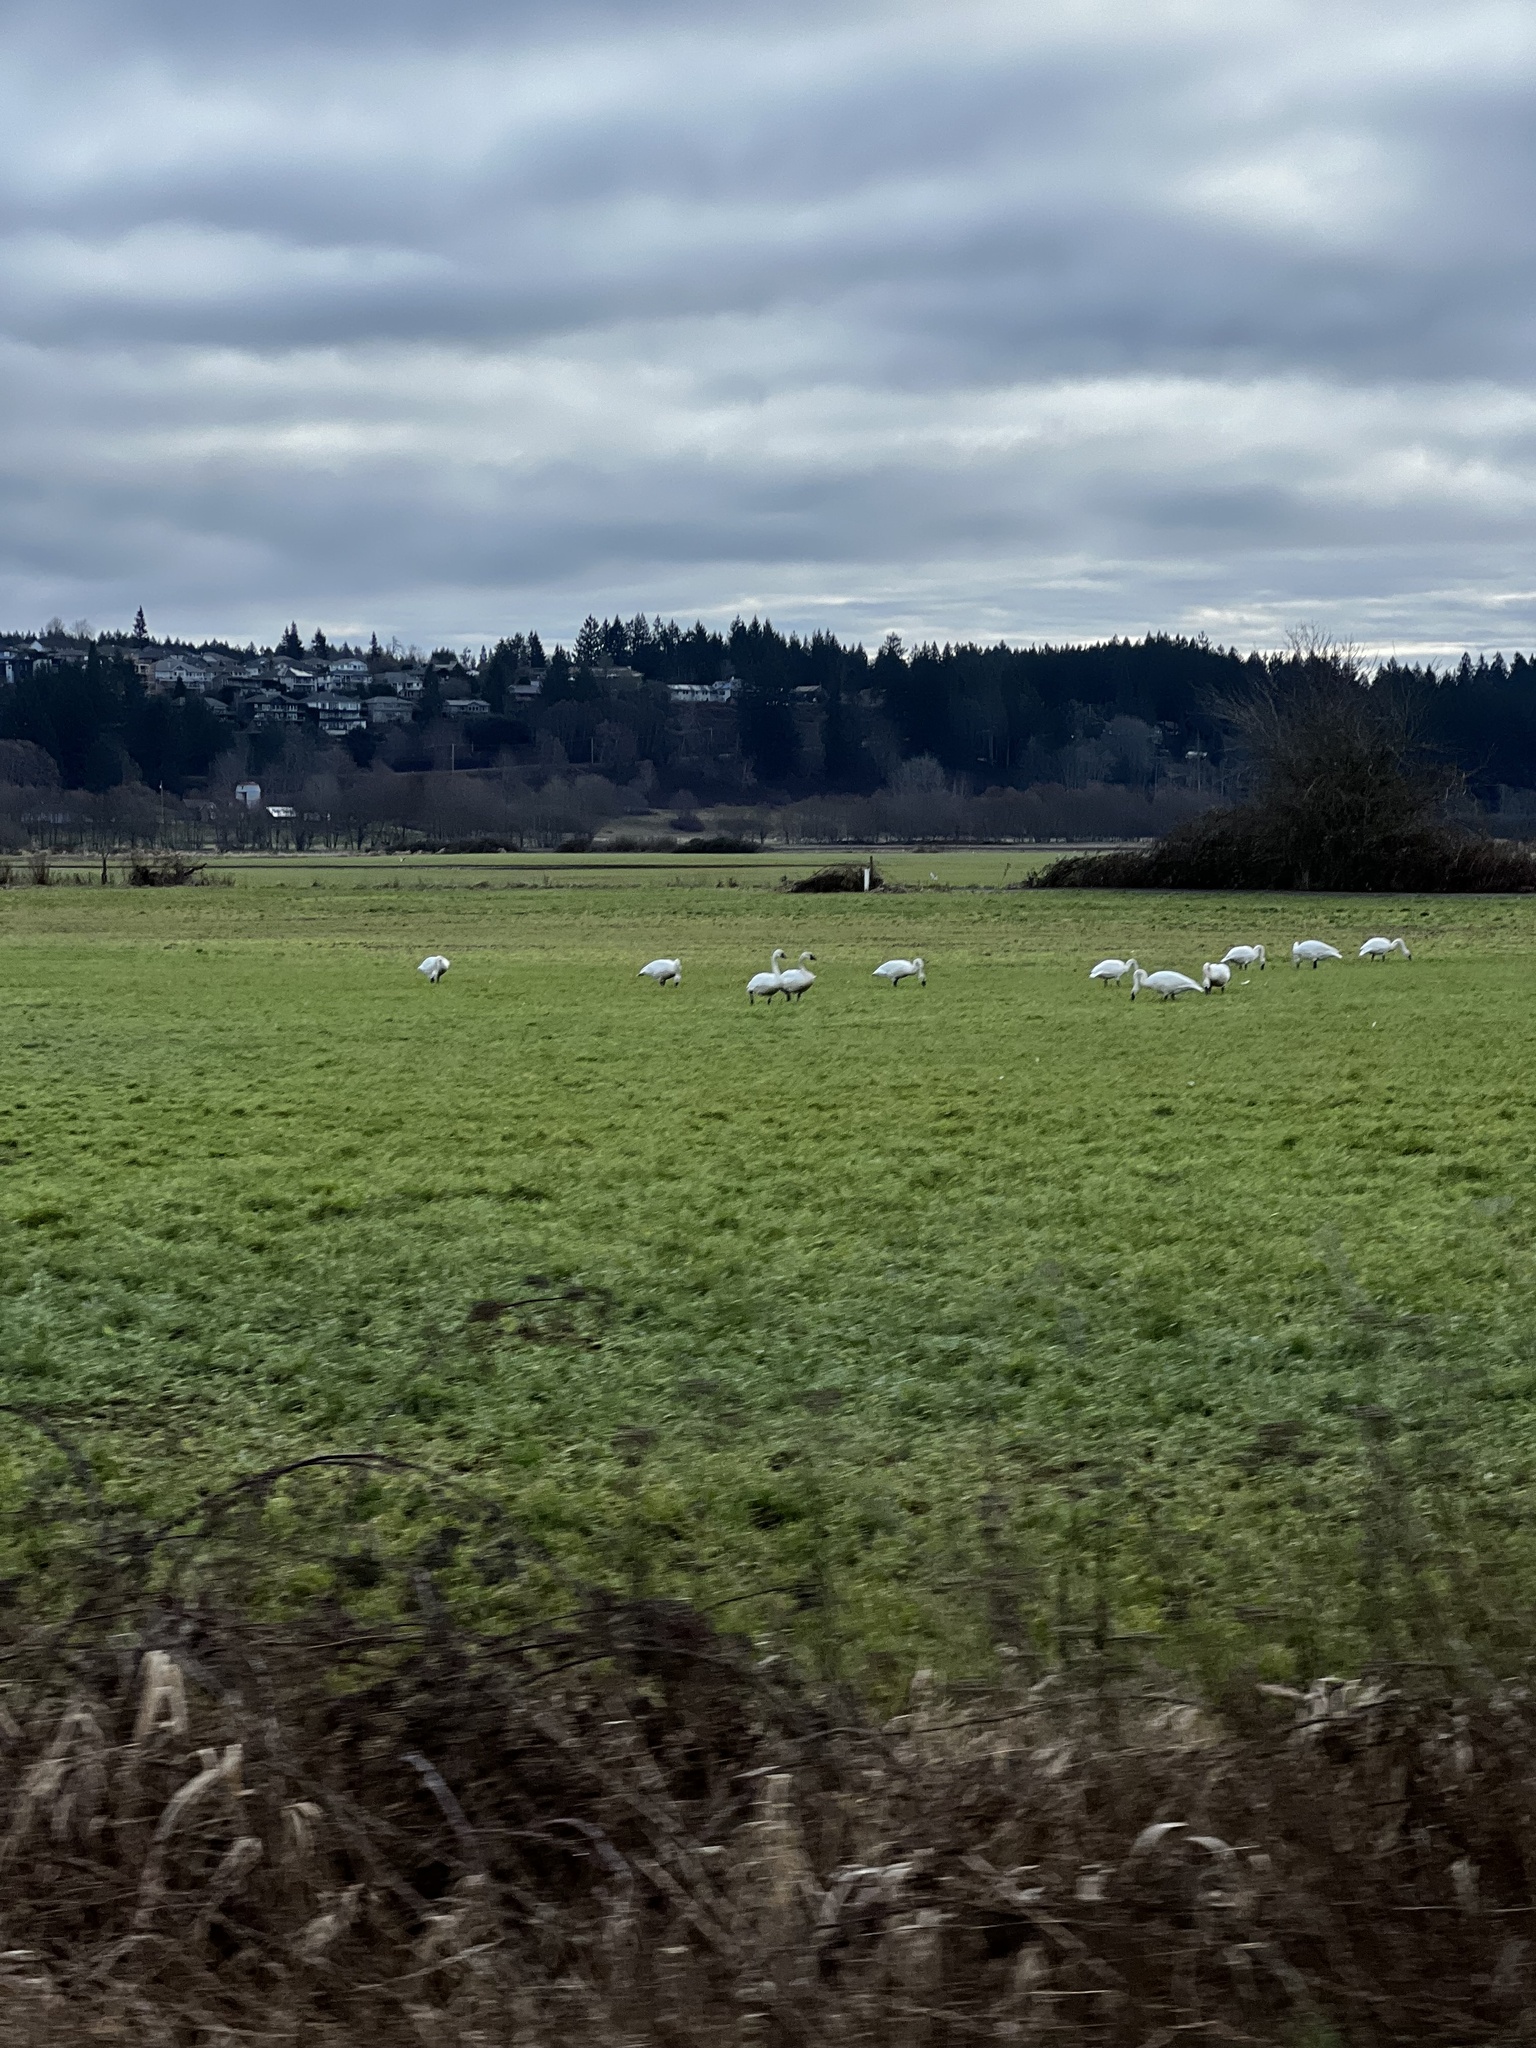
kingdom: Animalia
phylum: Chordata
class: Aves
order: Anseriformes
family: Anatidae
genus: Cygnus
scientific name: Cygnus buccinator
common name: Trumpeter swan
